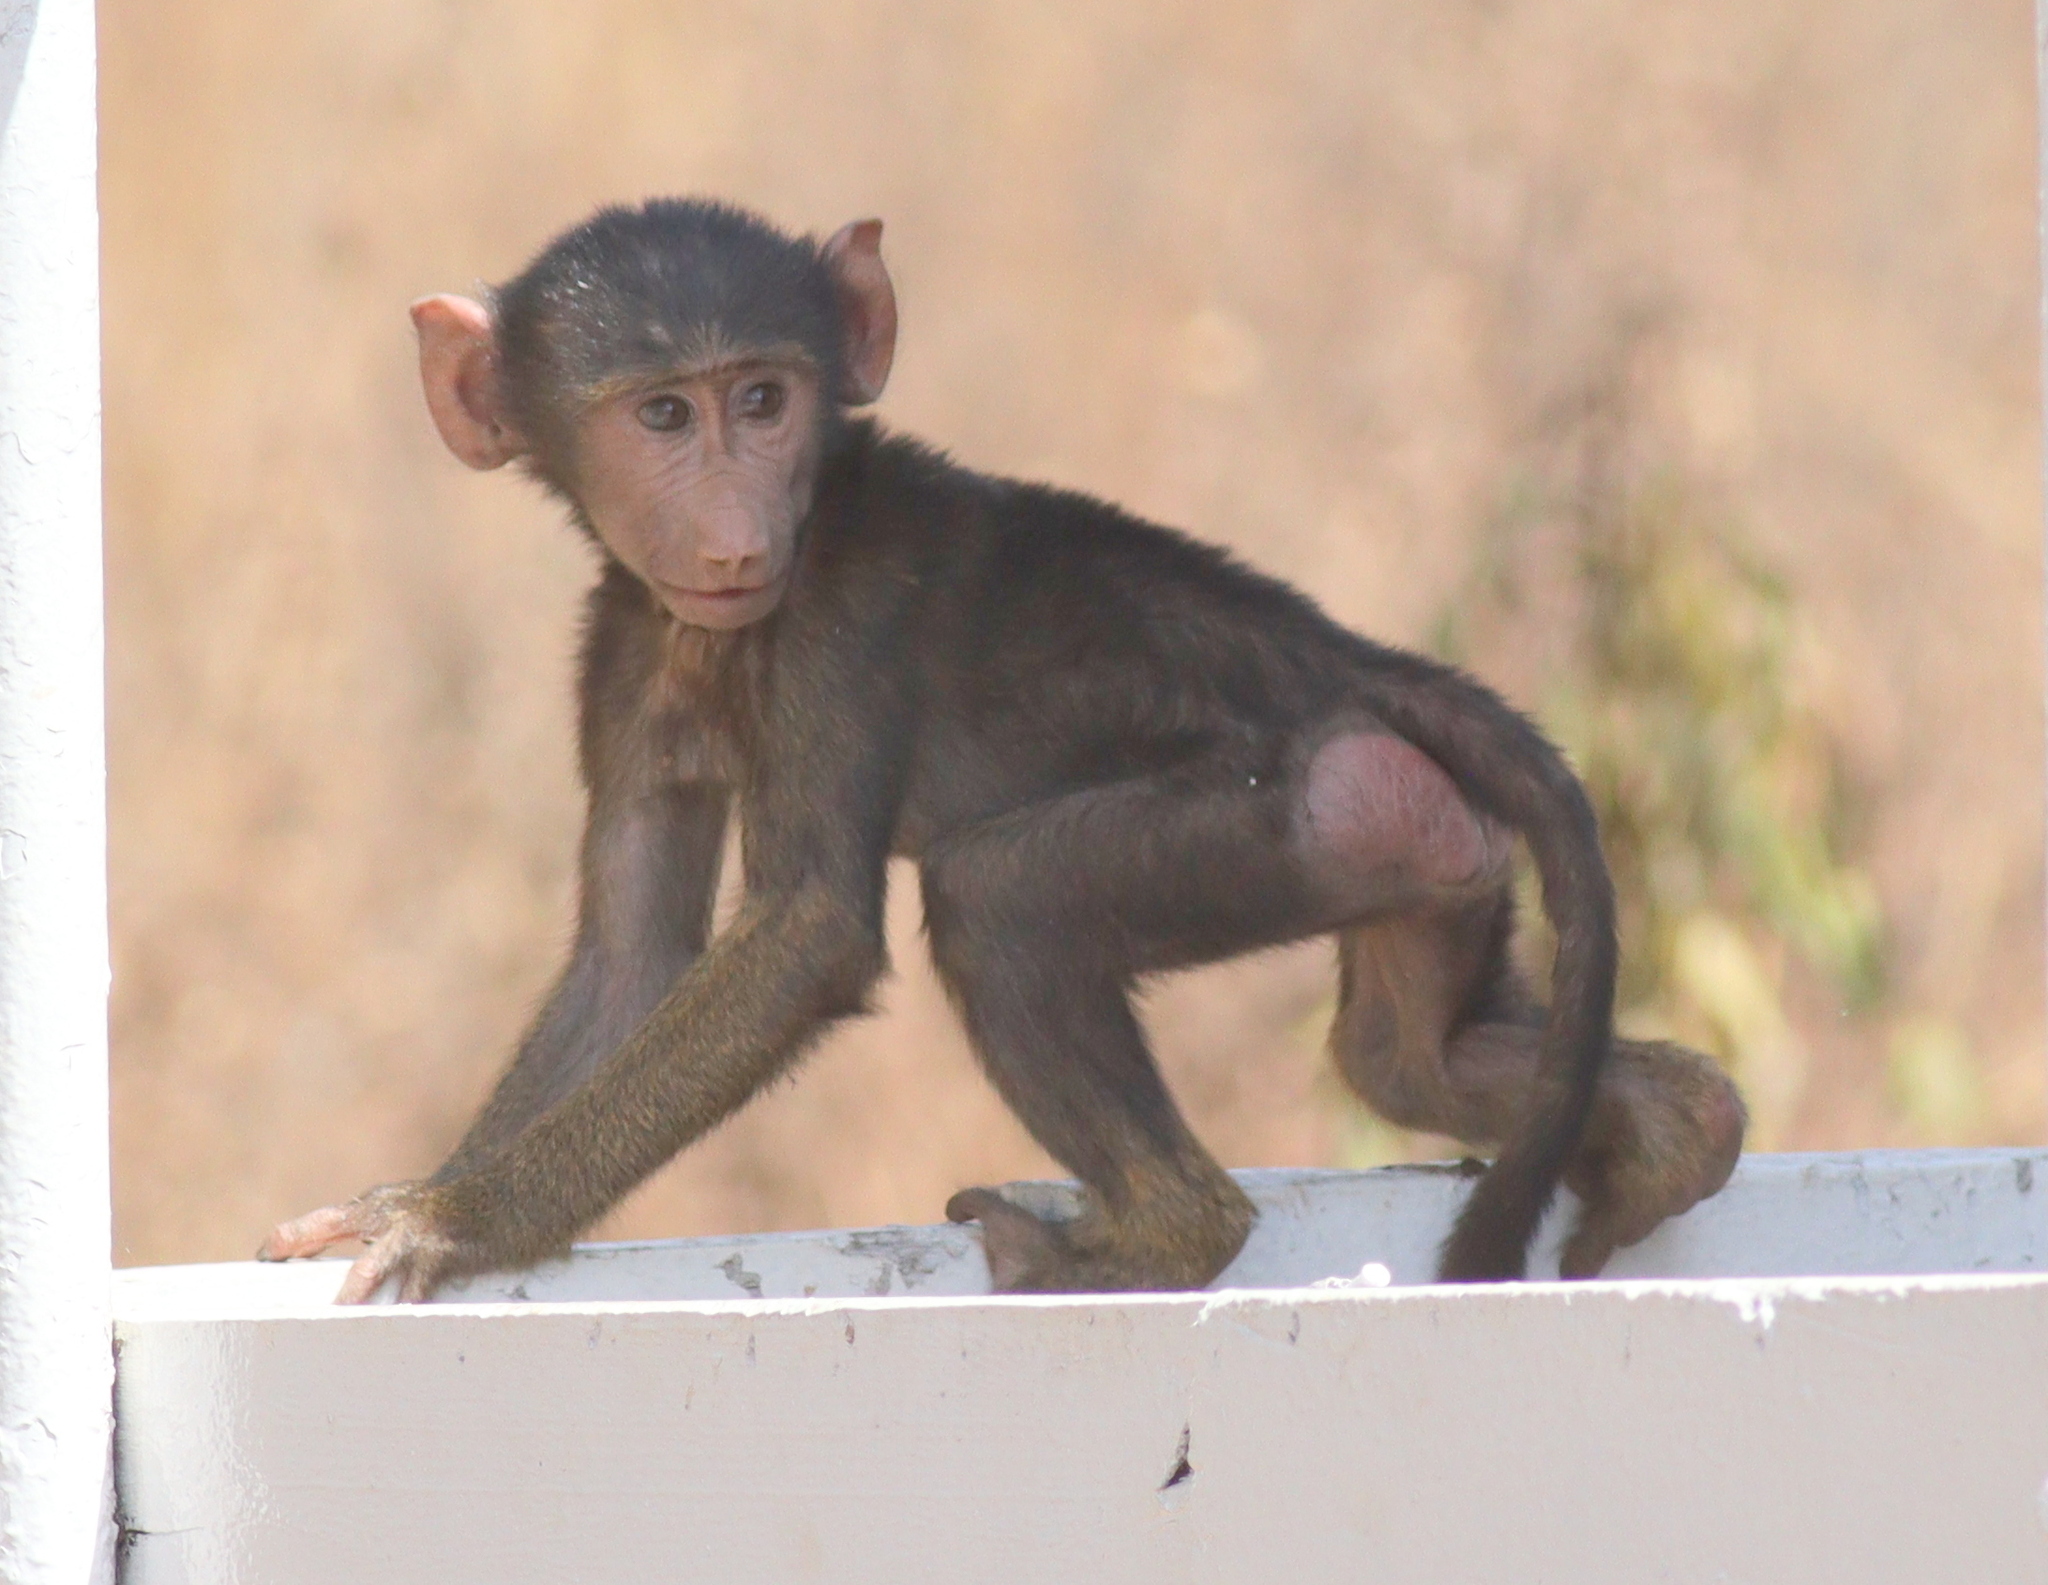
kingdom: Animalia
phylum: Chordata
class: Mammalia
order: Primates
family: Cercopithecidae
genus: Papio
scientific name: Papio anubis
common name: Olive baboon
